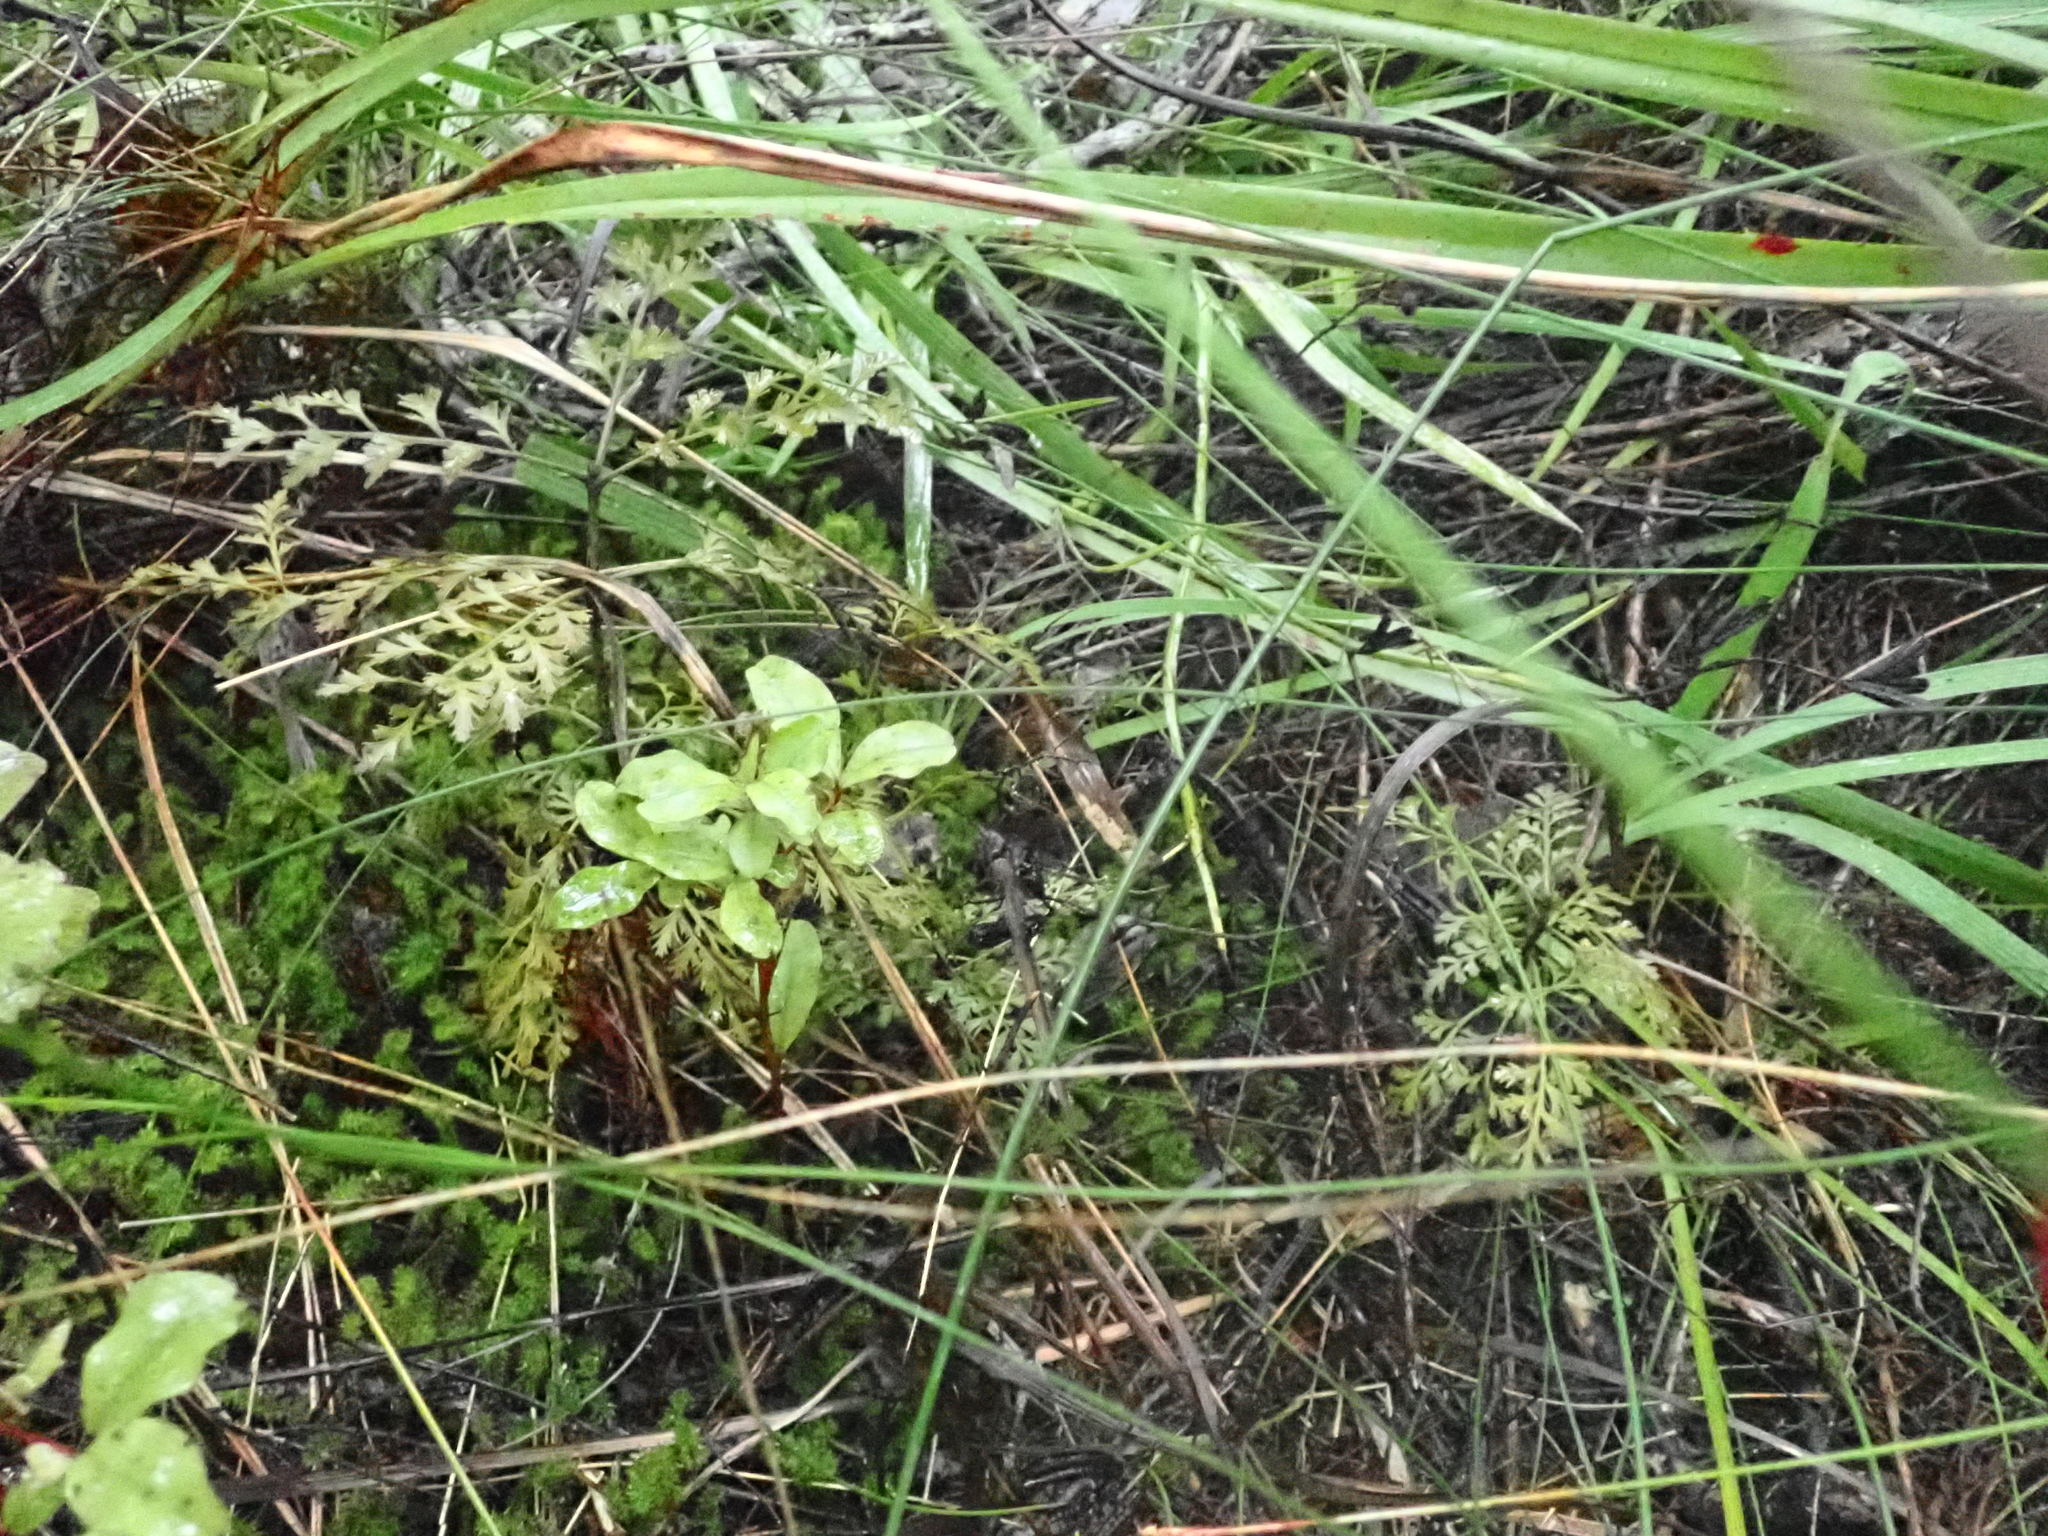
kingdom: Plantae
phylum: Tracheophyta
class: Pinopsida
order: Pinales
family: Phyllocladaceae
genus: Phyllocladus
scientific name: Phyllocladus trichomanoides
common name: Celery pine
